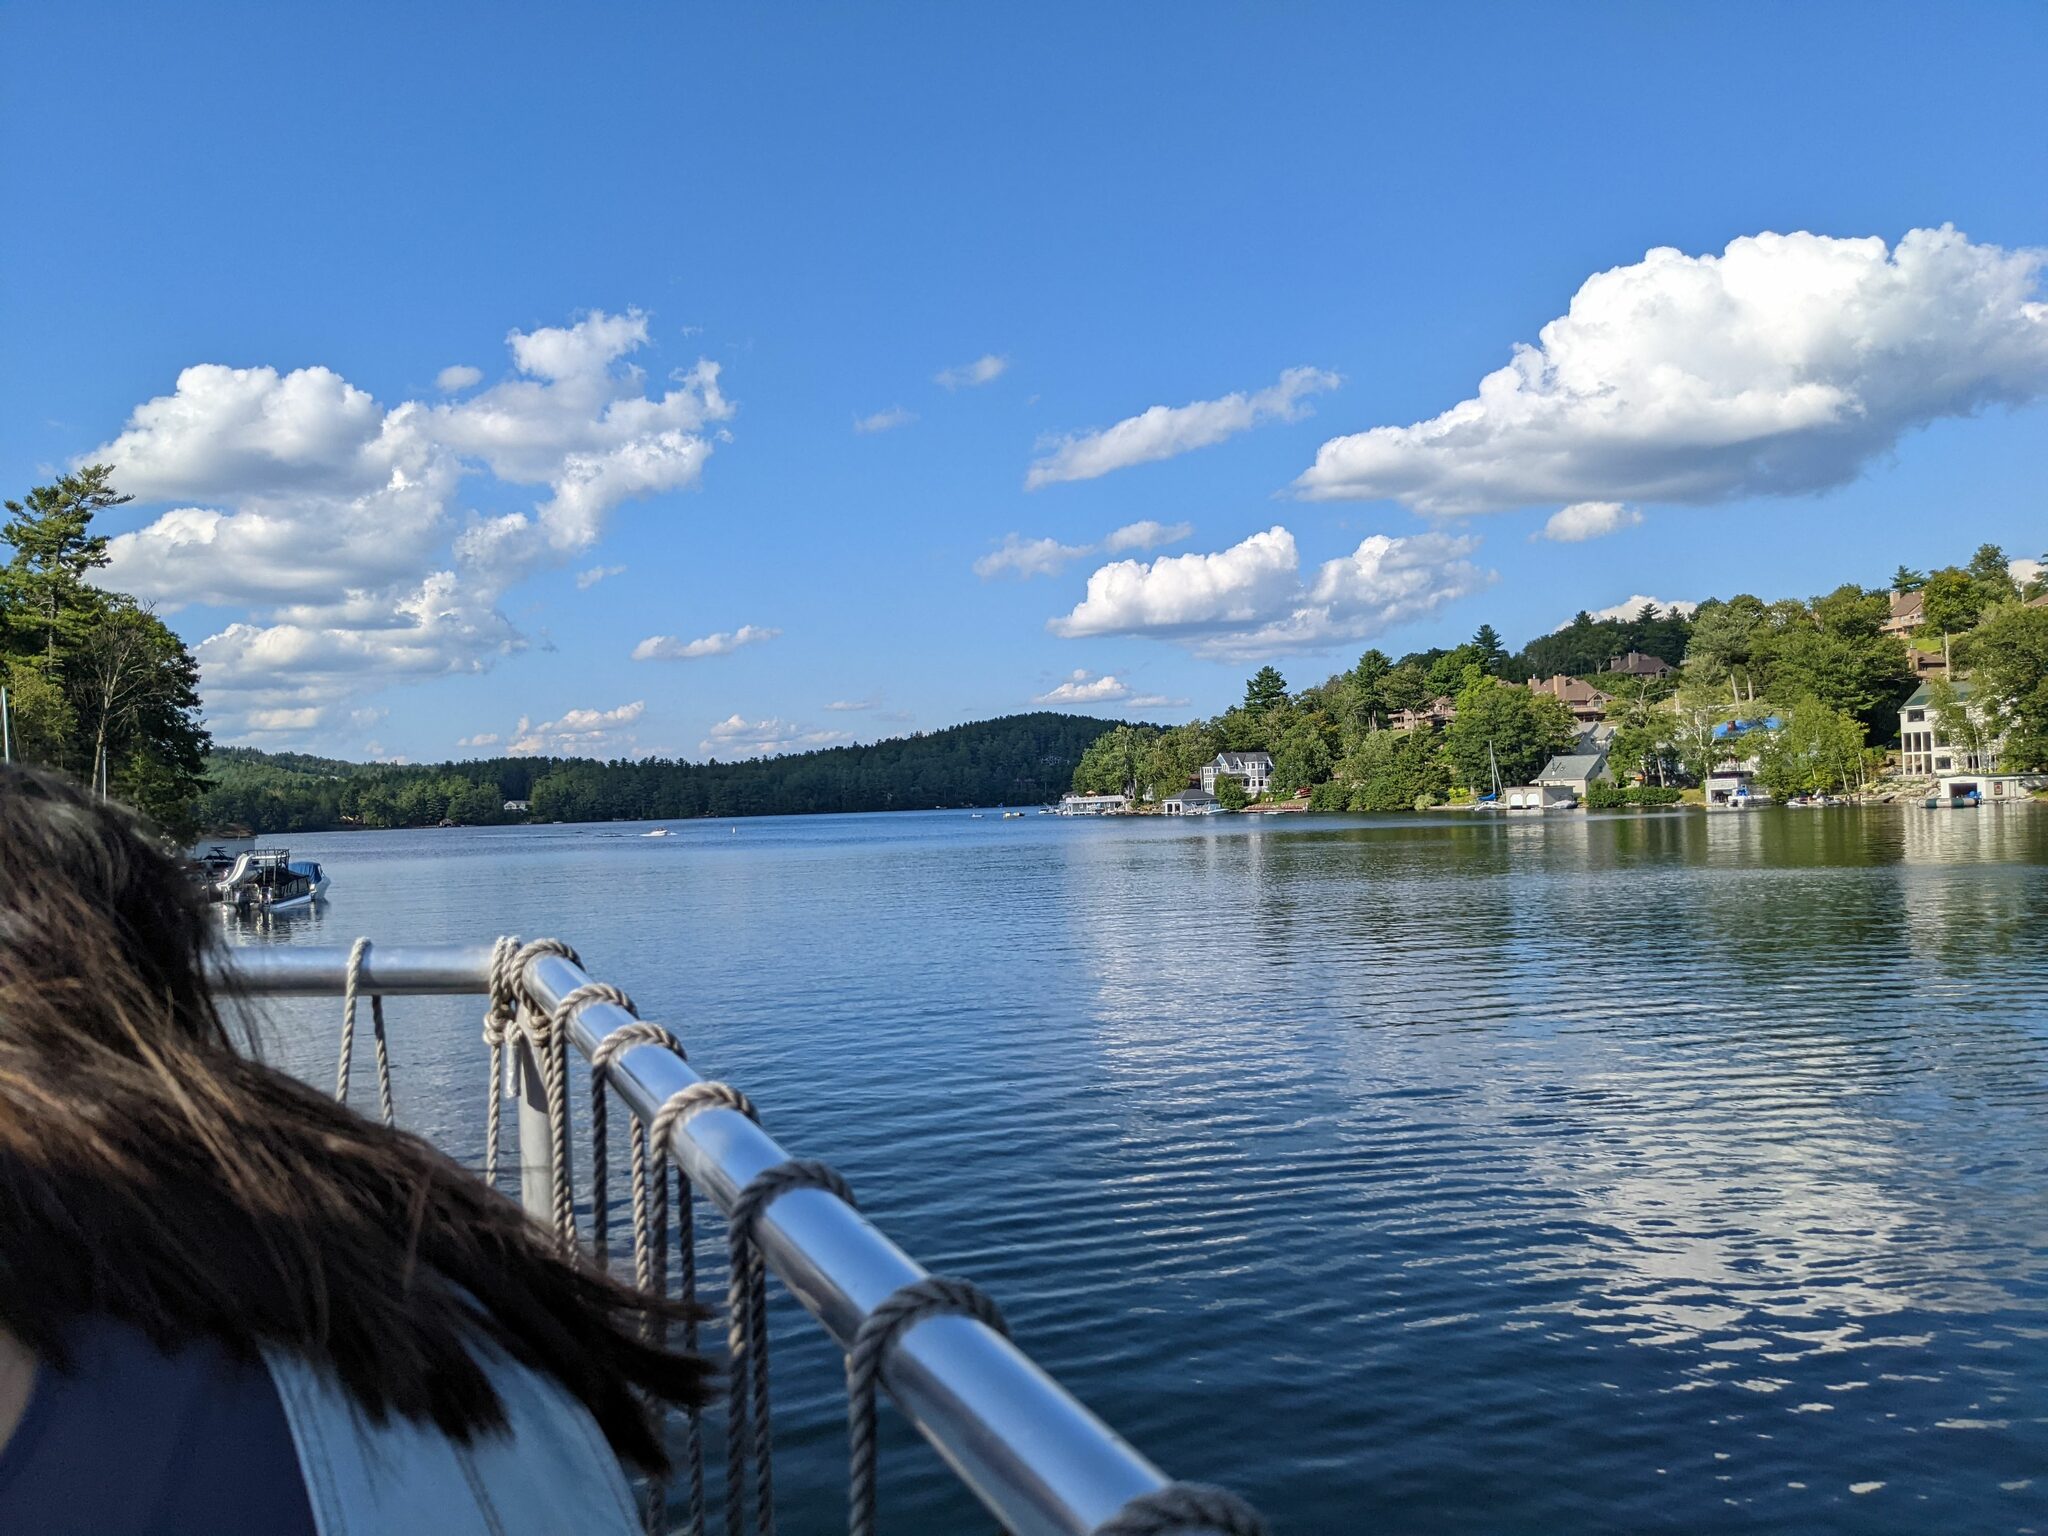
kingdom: Plantae
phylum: Tracheophyta
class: Pinopsida
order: Pinales
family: Pinaceae
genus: Pinus
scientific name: Pinus strobus
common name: Weymouth pine
